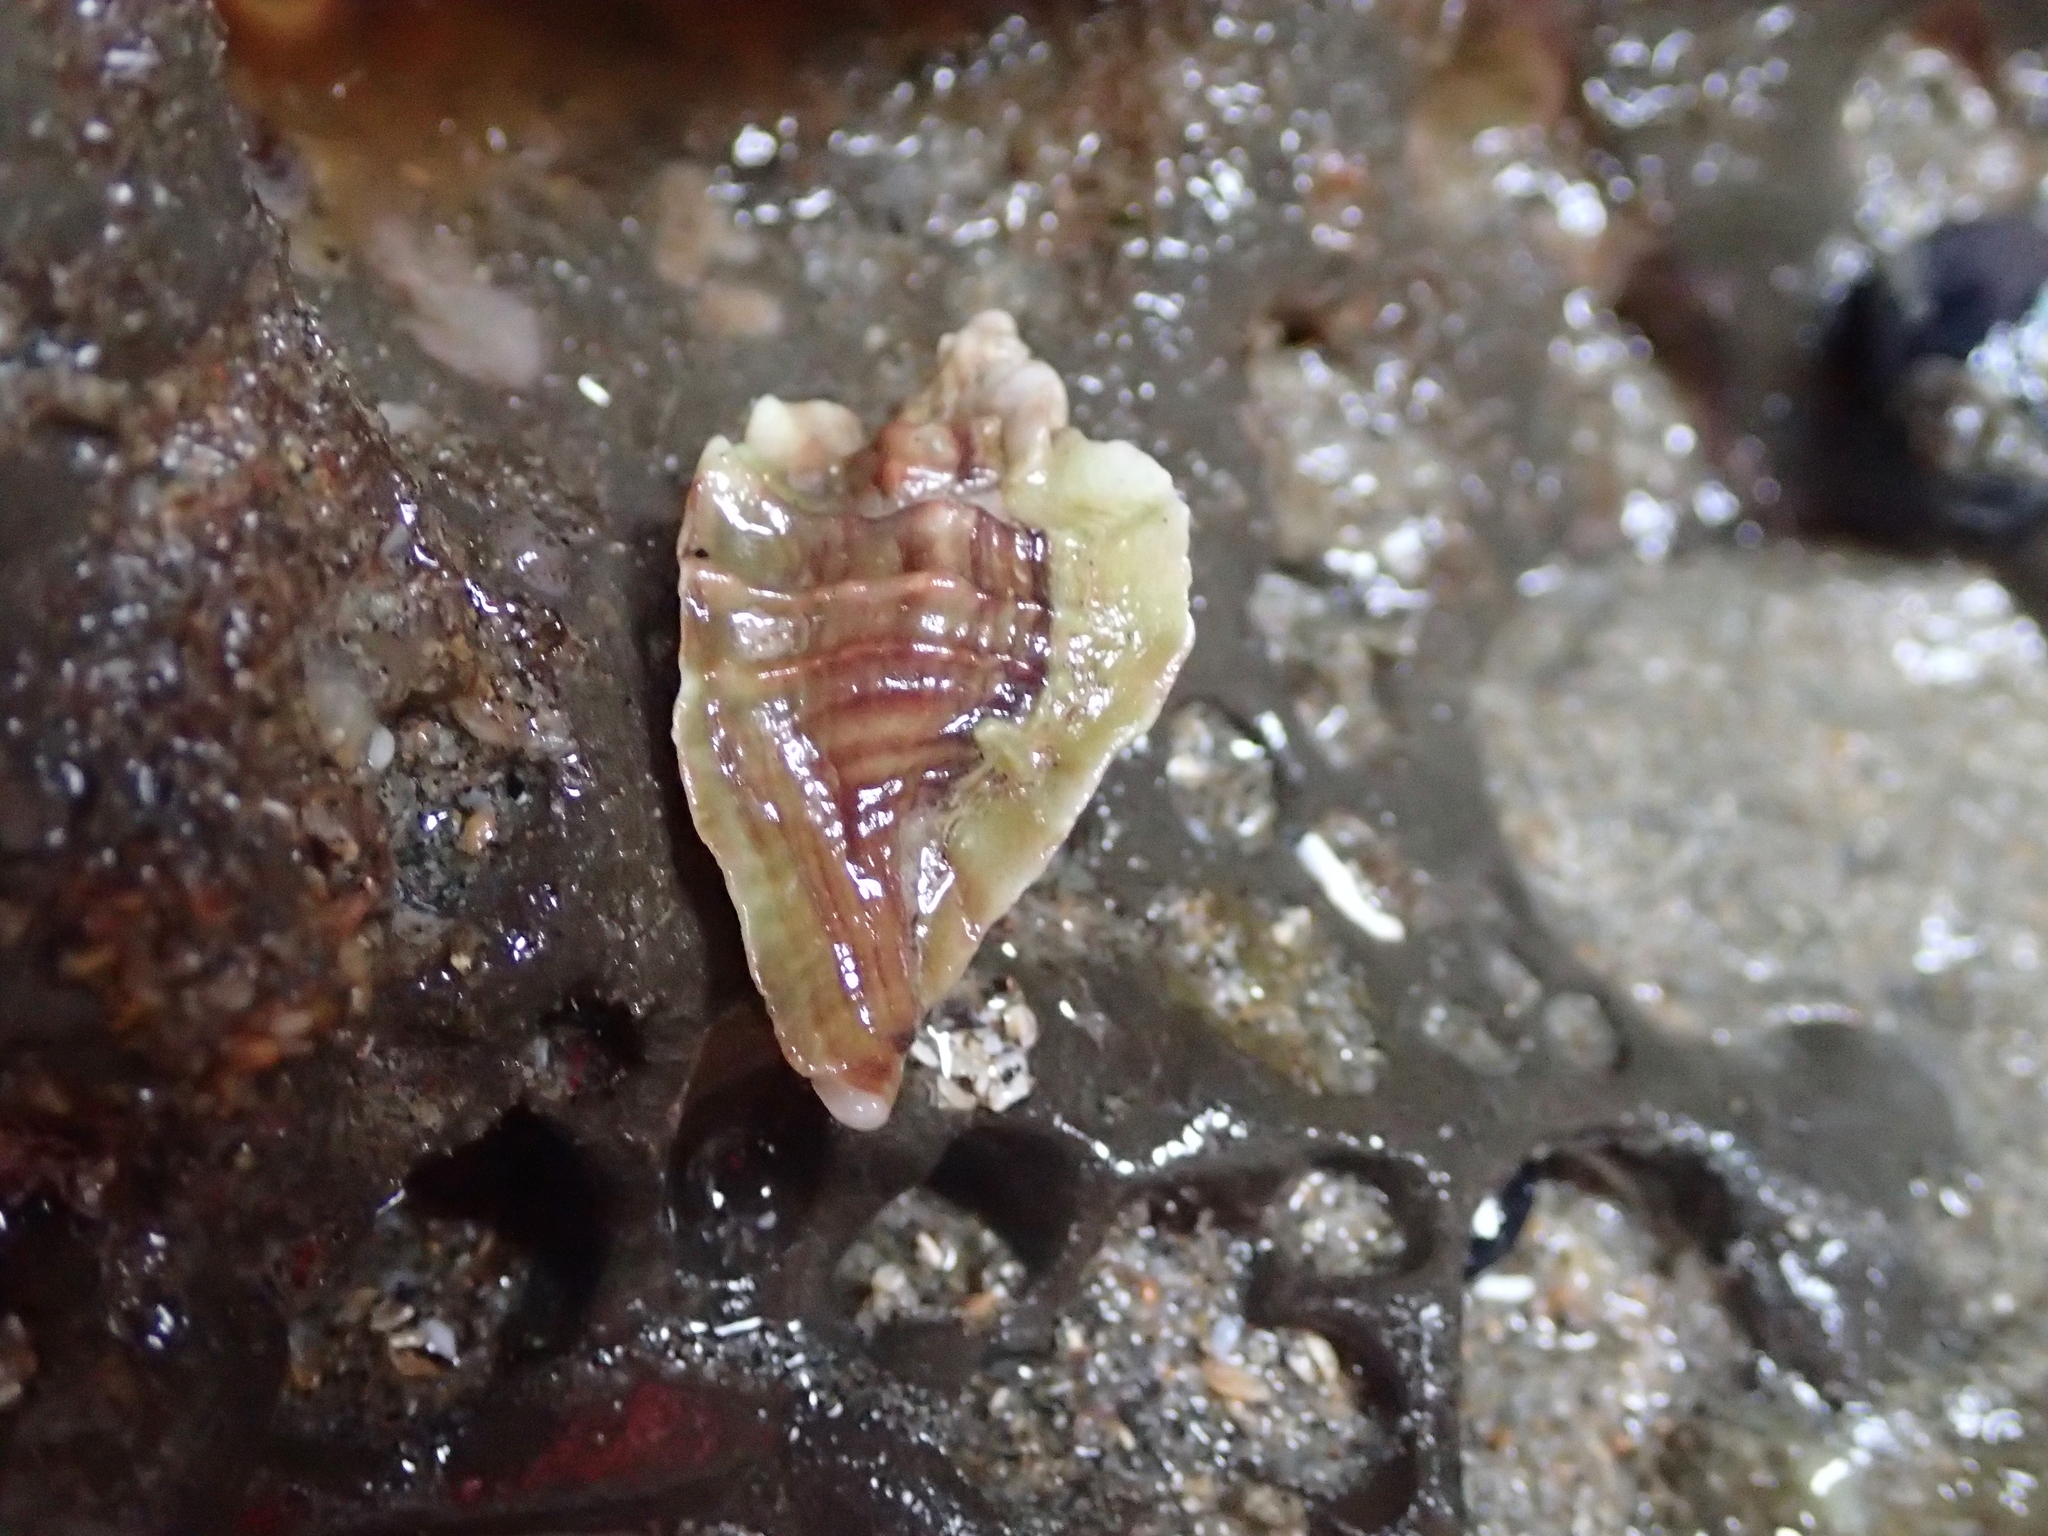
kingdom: Animalia
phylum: Mollusca
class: Gastropoda
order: Neogastropoda
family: Muricidae
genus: Ceratostoma
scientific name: Ceratostoma foliatum
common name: Foliate thorn purpura
